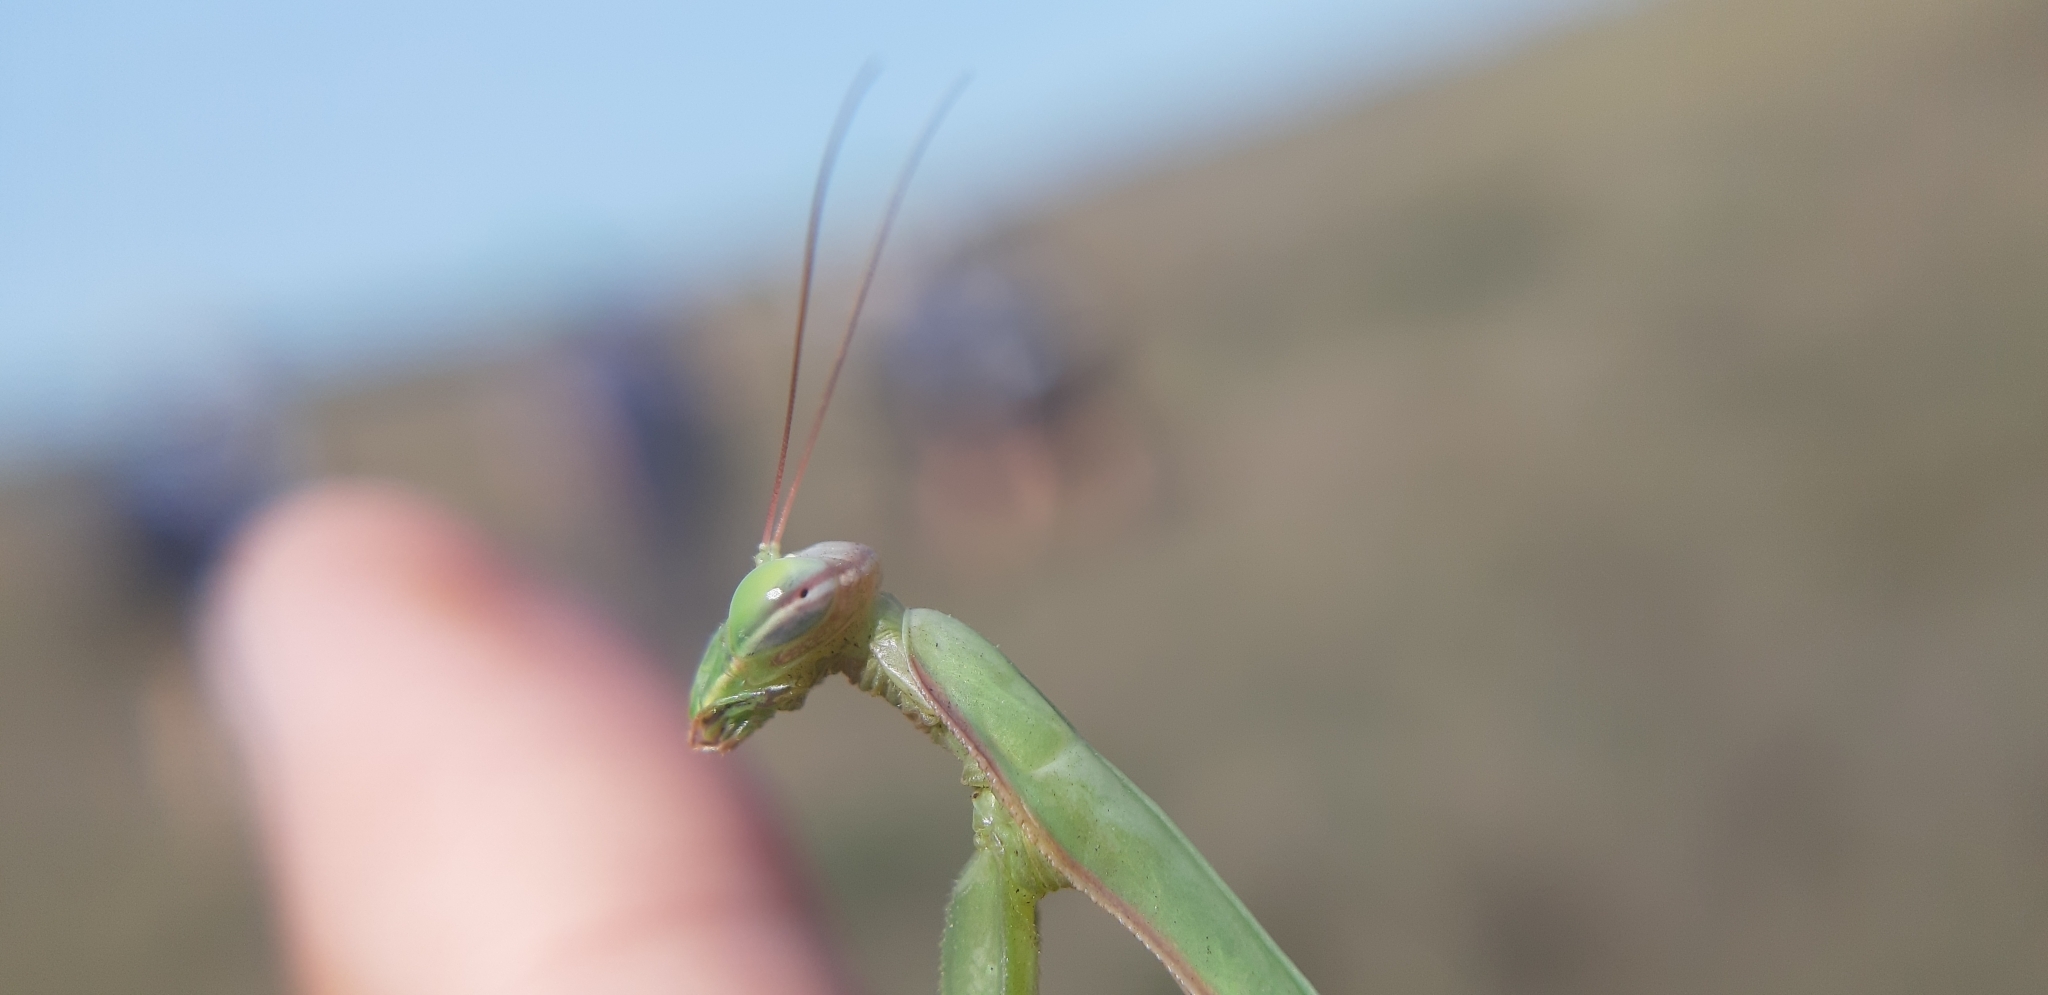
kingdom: Animalia
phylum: Arthropoda
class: Insecta
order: Mantodea
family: Mantidae
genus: Mantis
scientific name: Mantis religiosa
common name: Praying mantis
